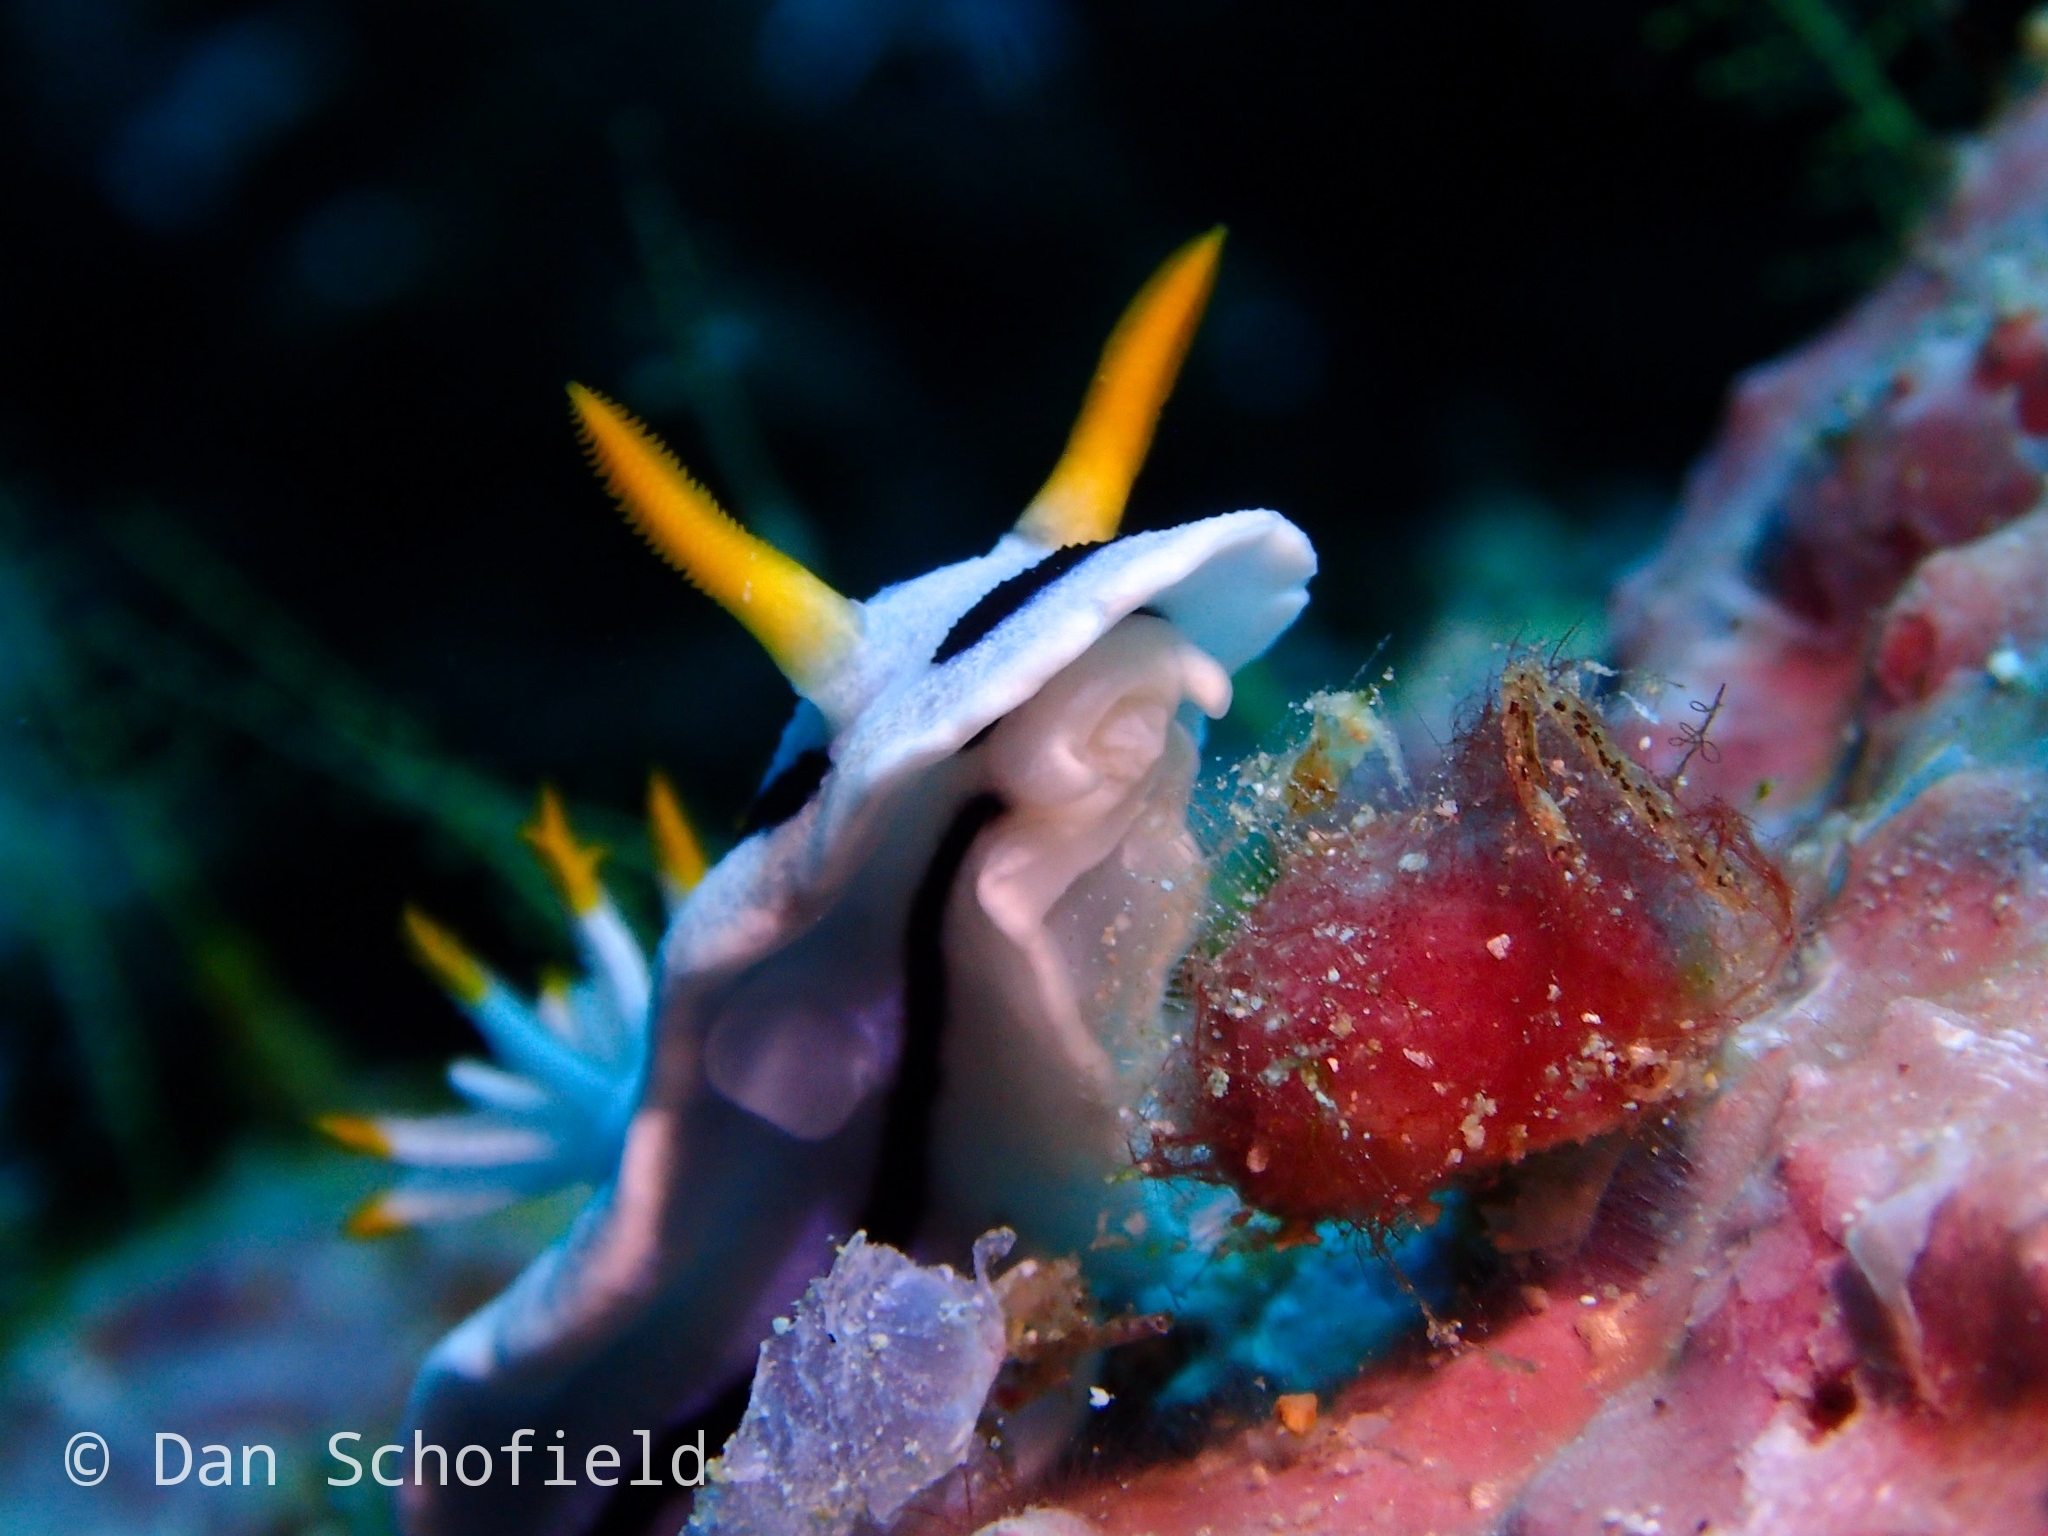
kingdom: Animalia
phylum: Mollusca
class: Gastropoda
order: Nudibranchia
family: Chromodorididae
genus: Chromodoris
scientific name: Chromodoris alcalai
